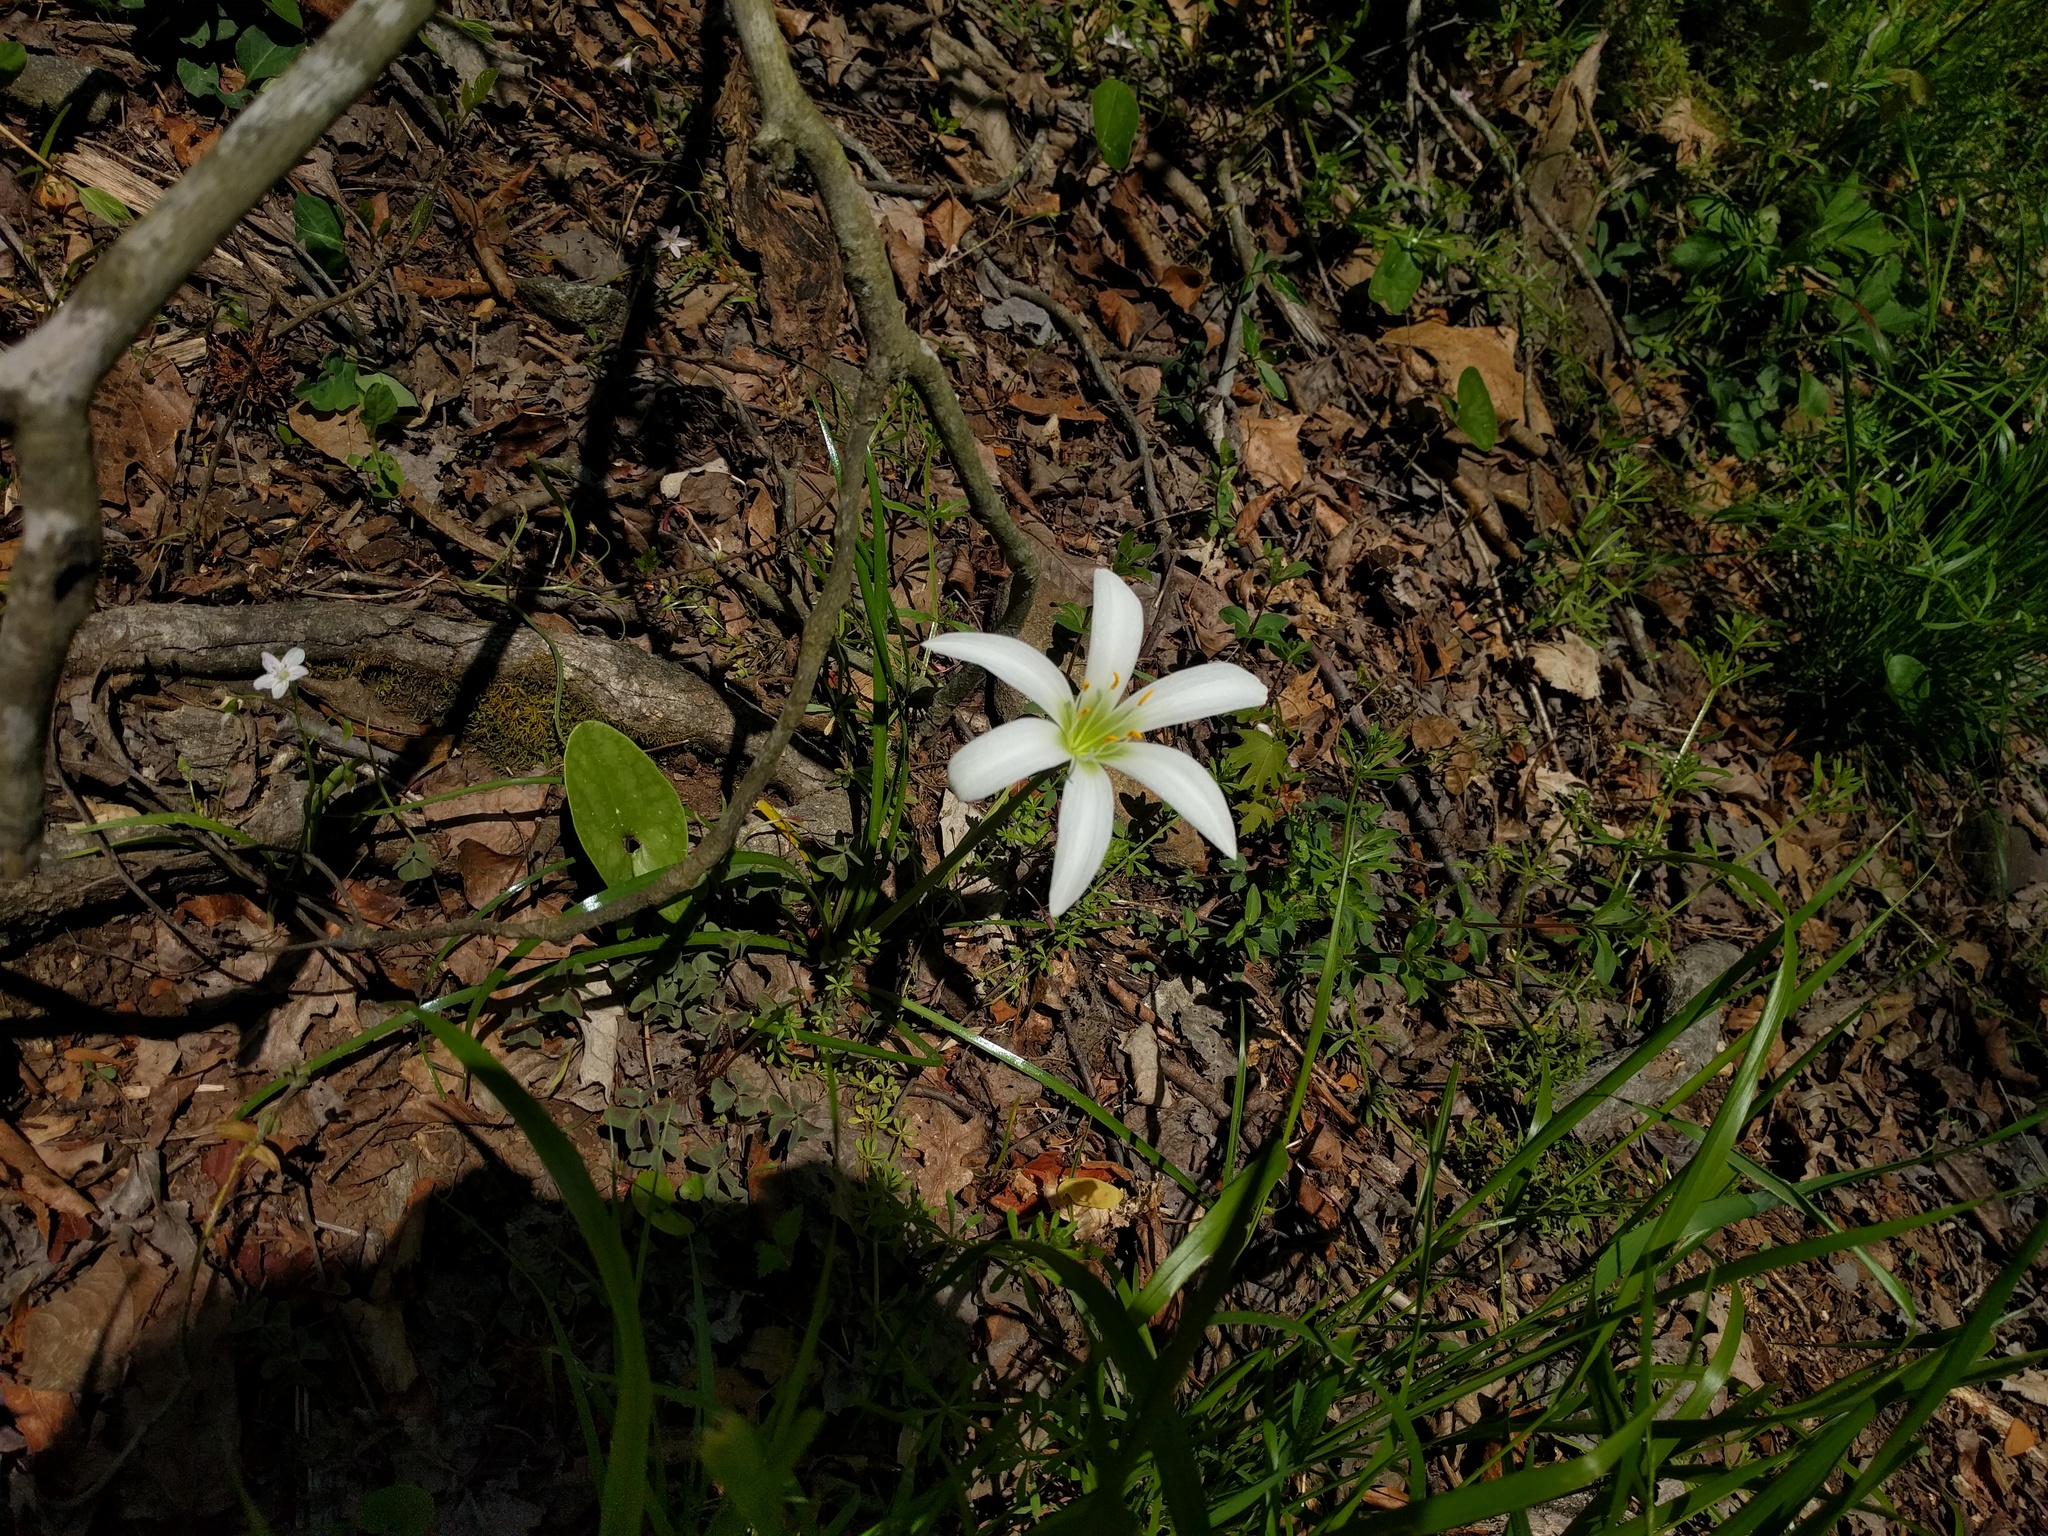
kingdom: Plantae
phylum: Tracheophyta
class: Liliopsida
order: Asparagales
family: Amaryllidaceae
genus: Zephyranthes
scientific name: Zephyranthes atamasco
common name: Atamasco lily
